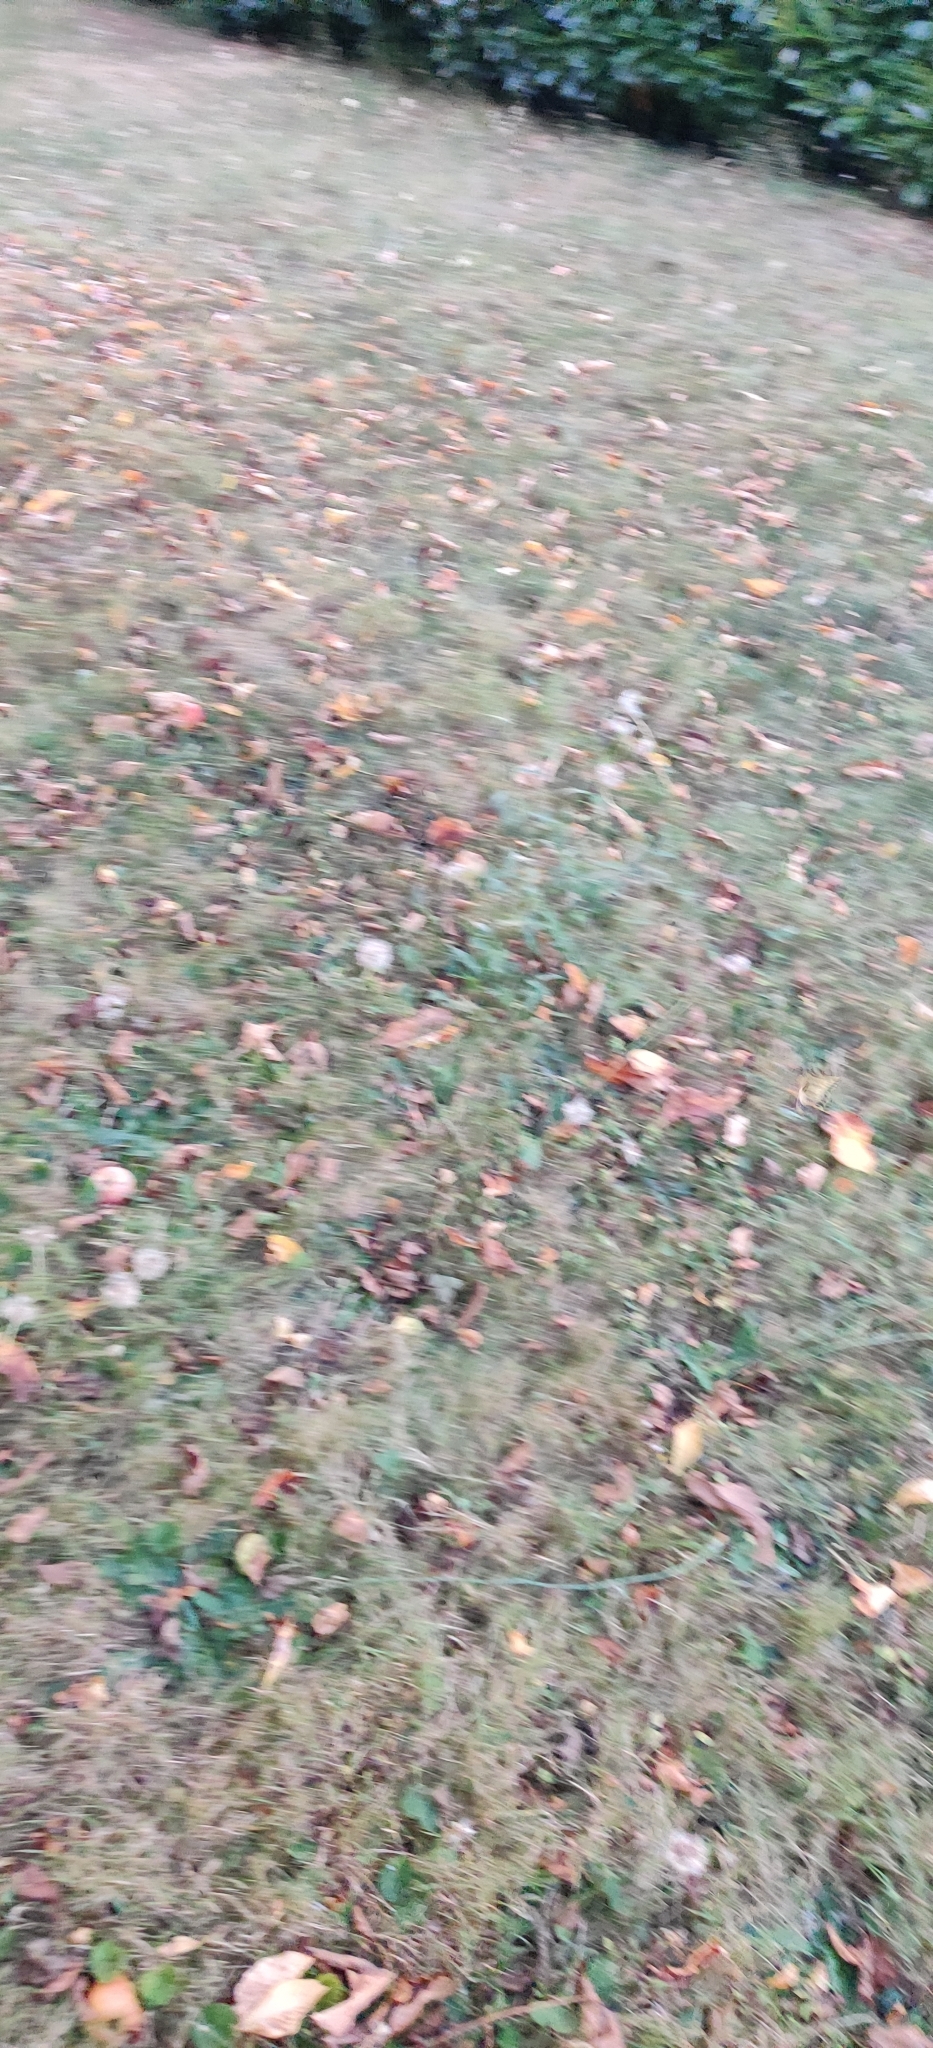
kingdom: Animalia
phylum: Arthropoda
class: Insecta
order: Lepidoptera
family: Papilionidae
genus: Papilio
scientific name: Papilio machaon
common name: Swallowtail
